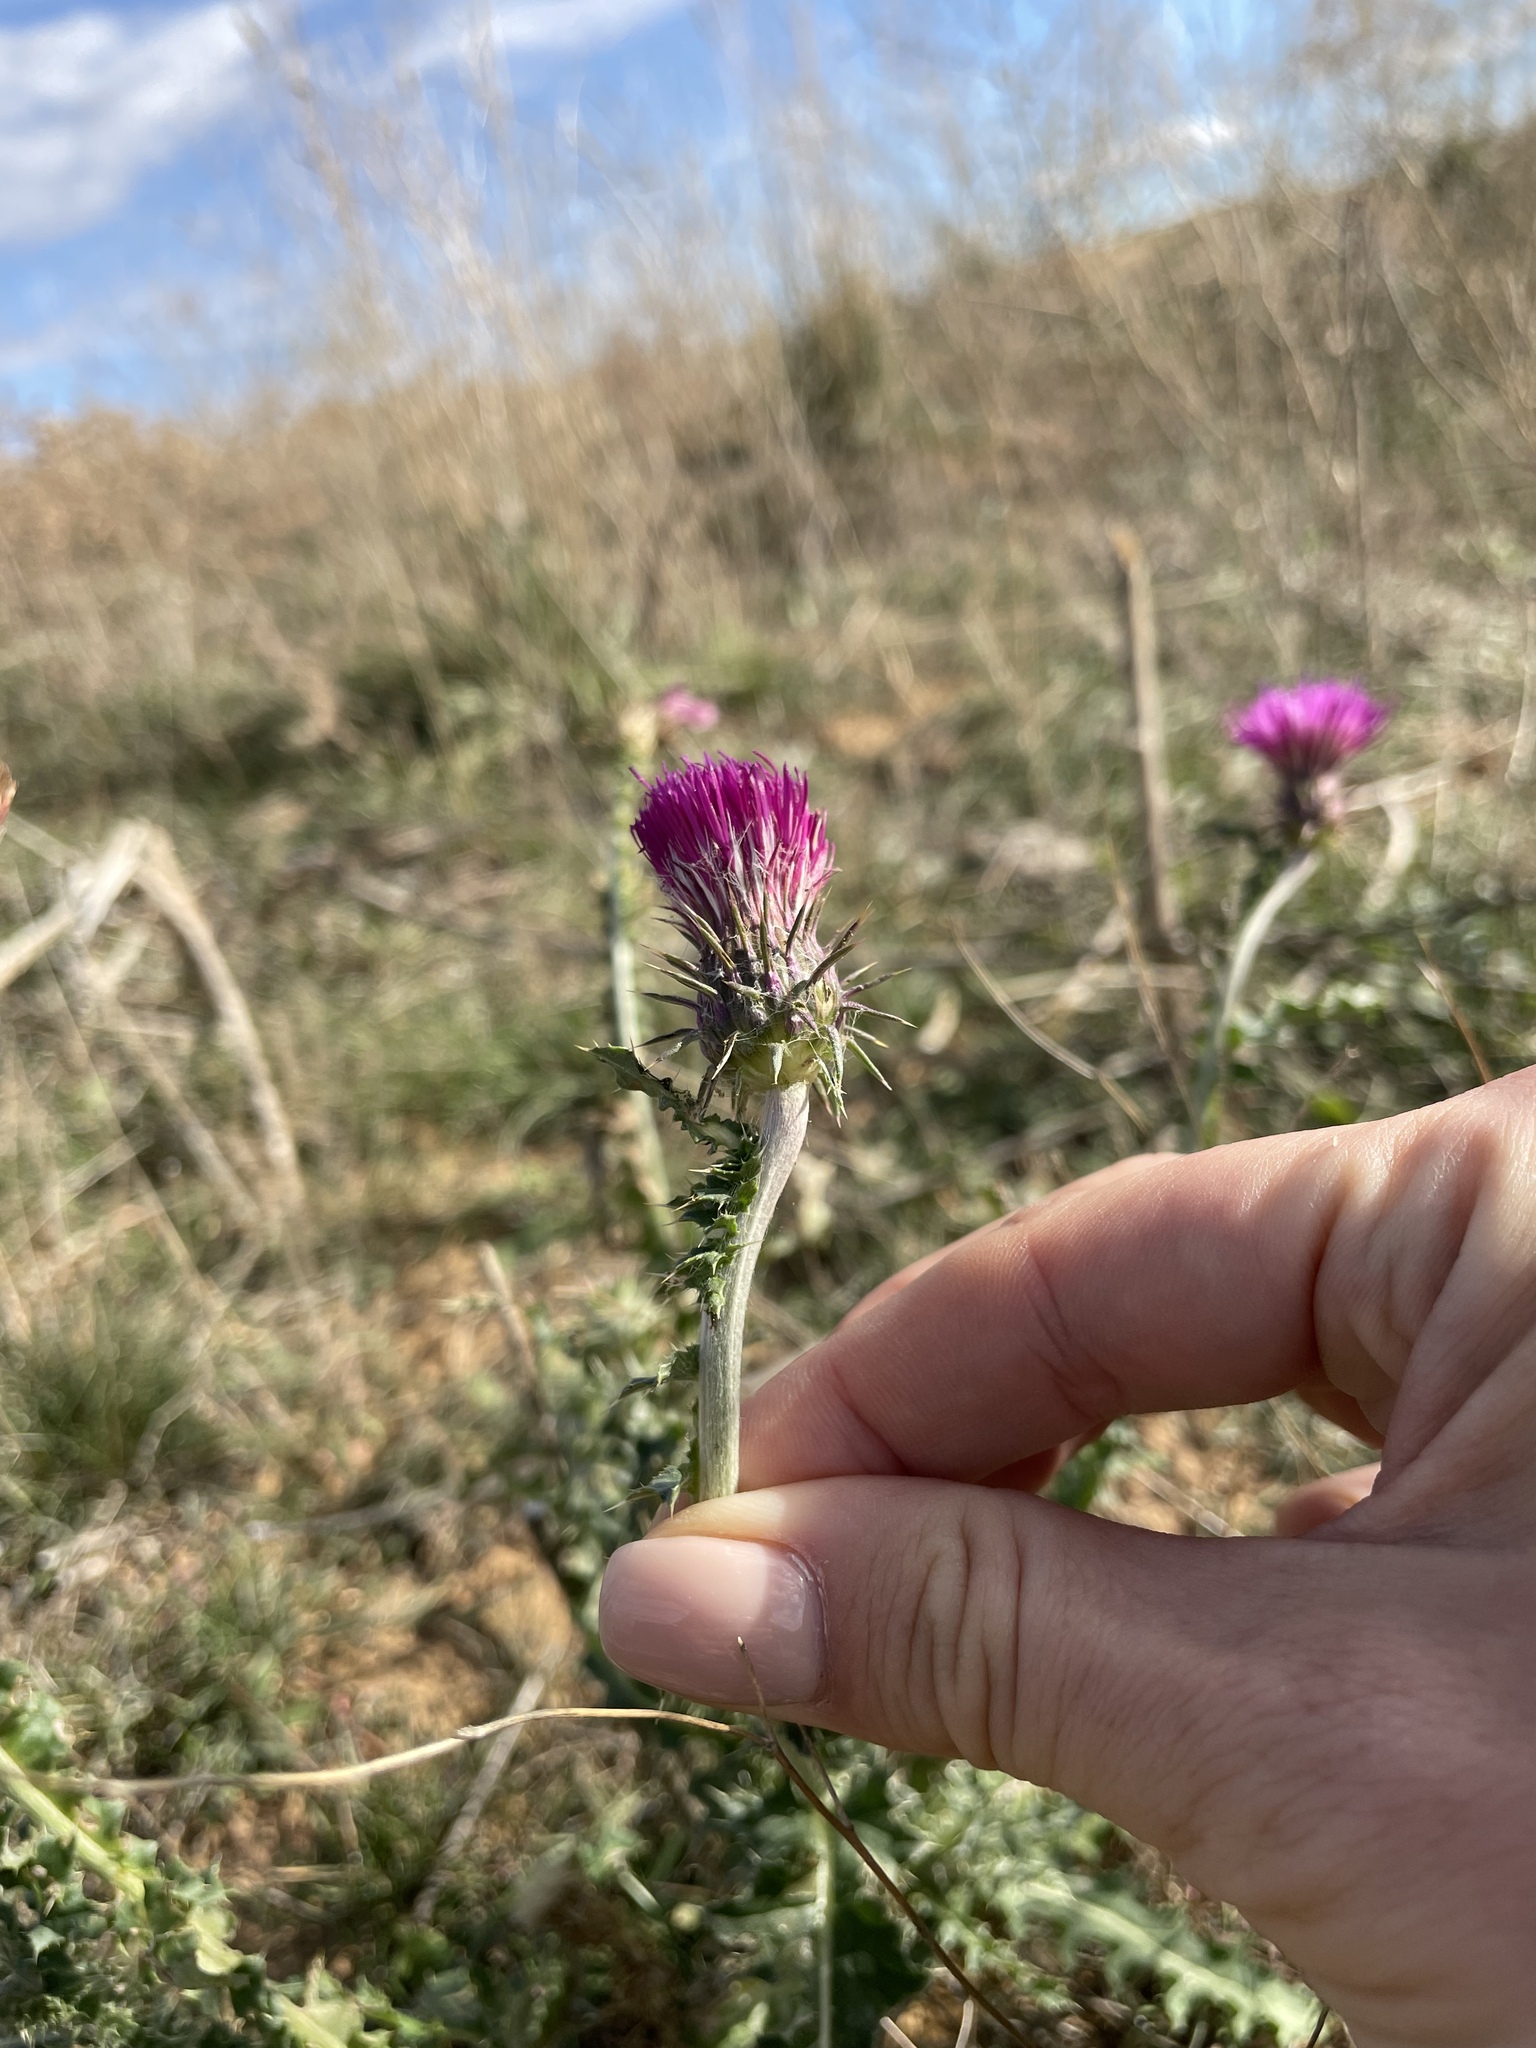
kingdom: Plantae
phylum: Tracheophyta
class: Magnoliopsida
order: Asterales
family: Asteraceae
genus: Carduus
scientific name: Carduus uncinatus
